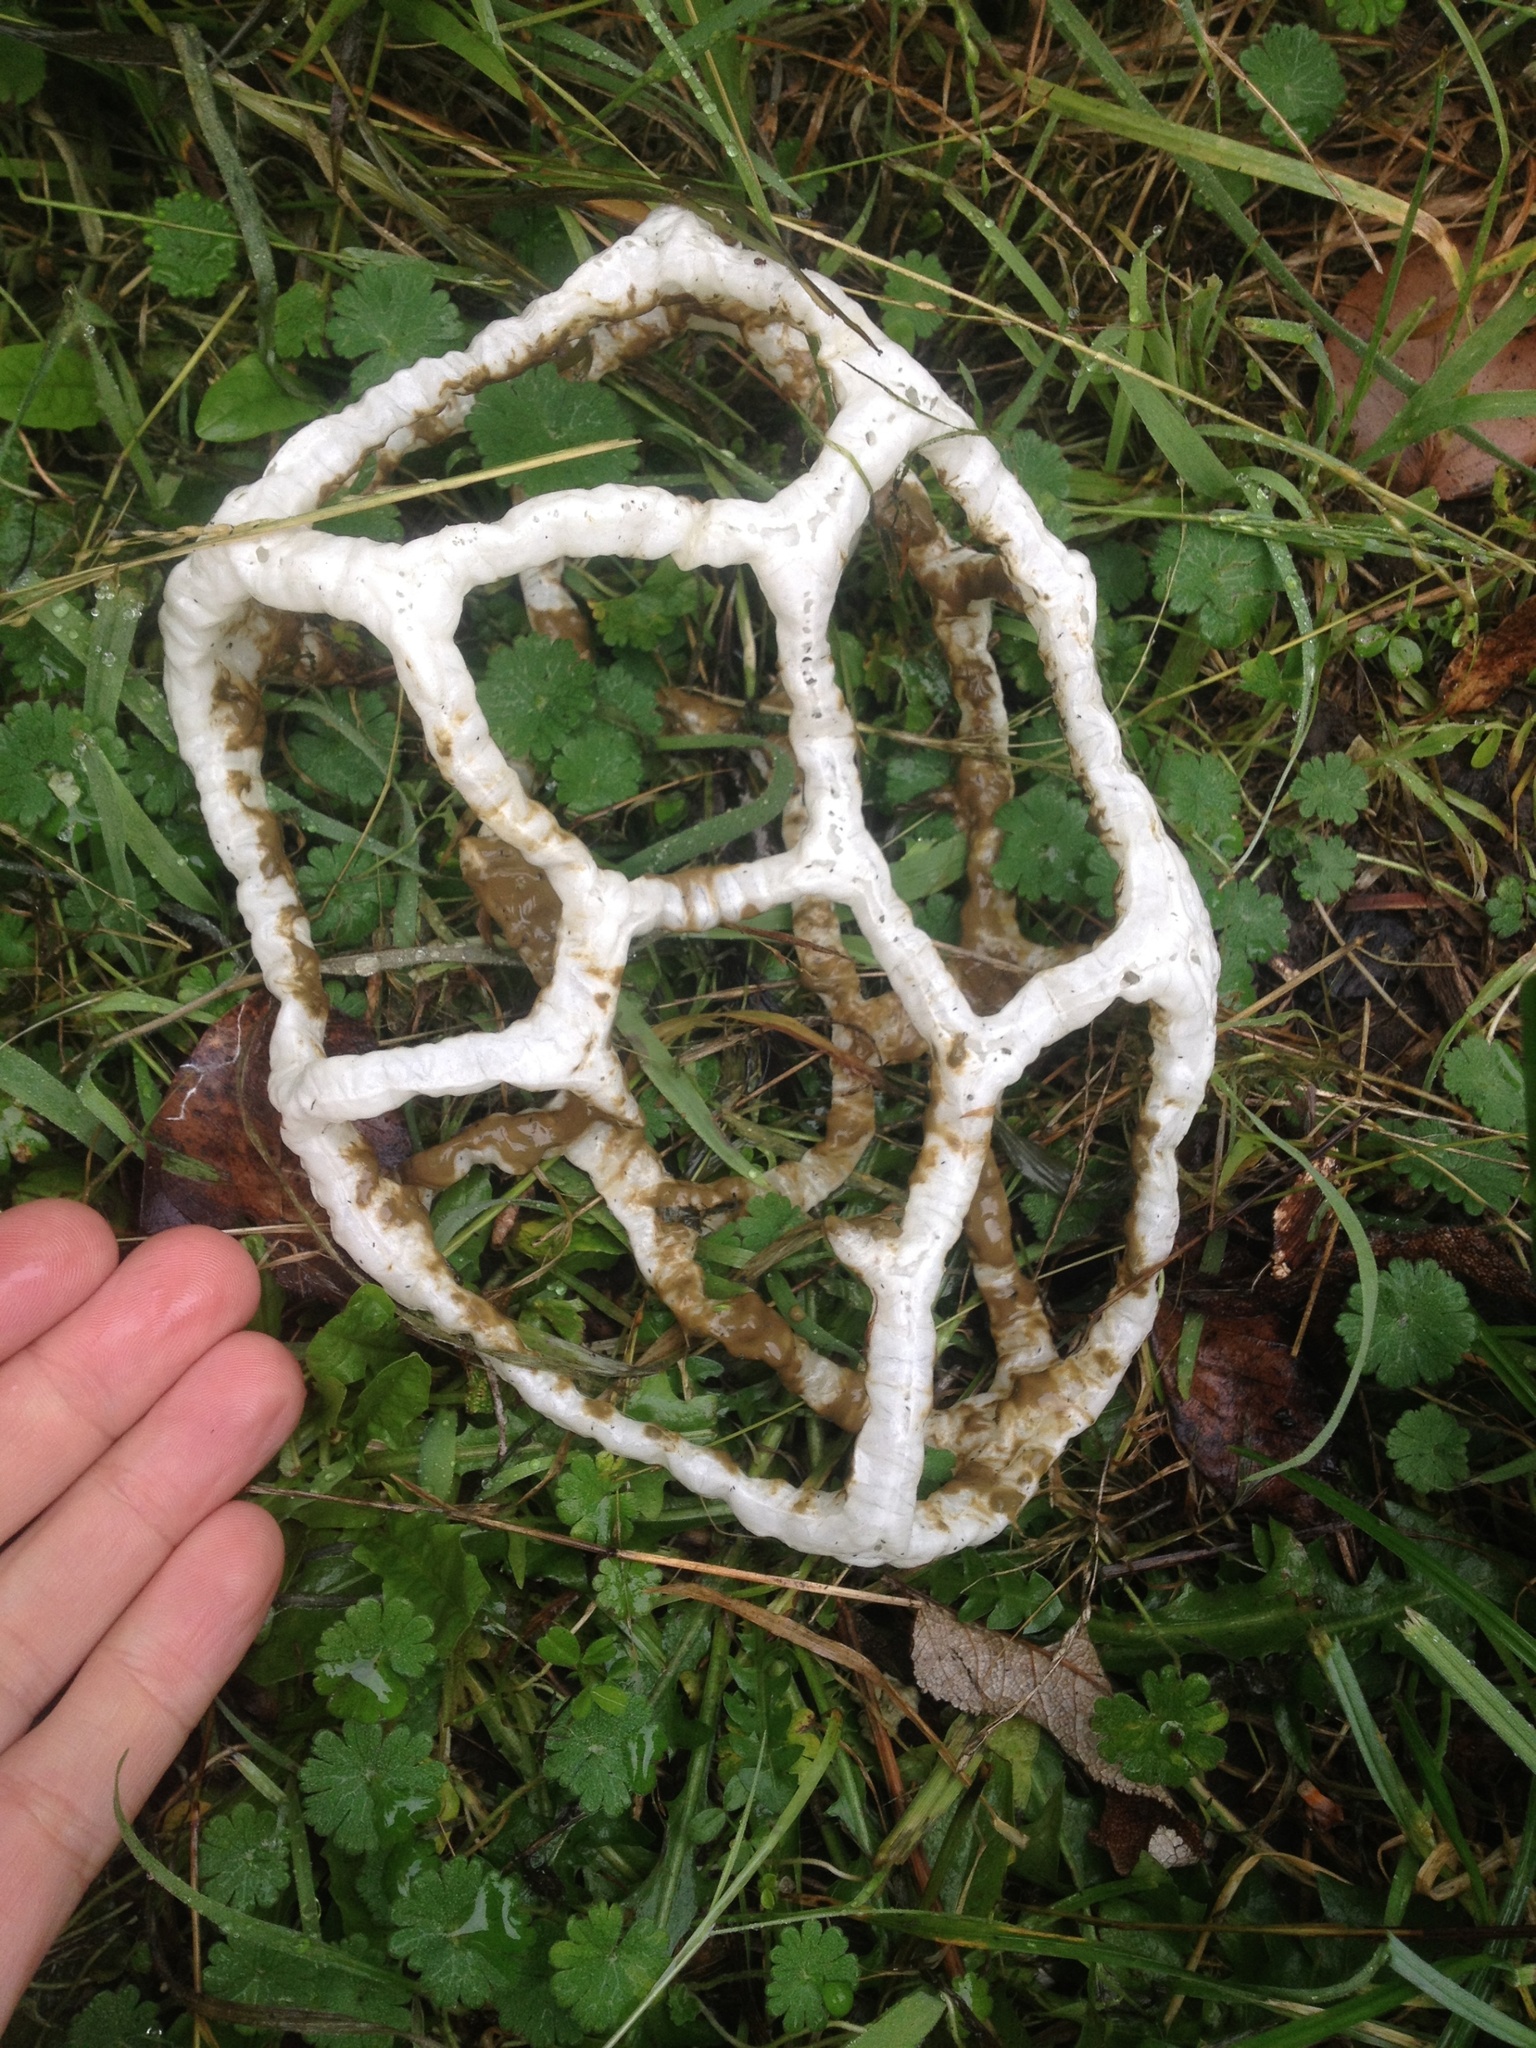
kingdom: Fungi
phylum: Basidiomycota
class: Agaricomycetes
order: Phallales
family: Phallaceae
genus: Ileodictyon
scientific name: Ileodictyon cibarium
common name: Basket fungus
